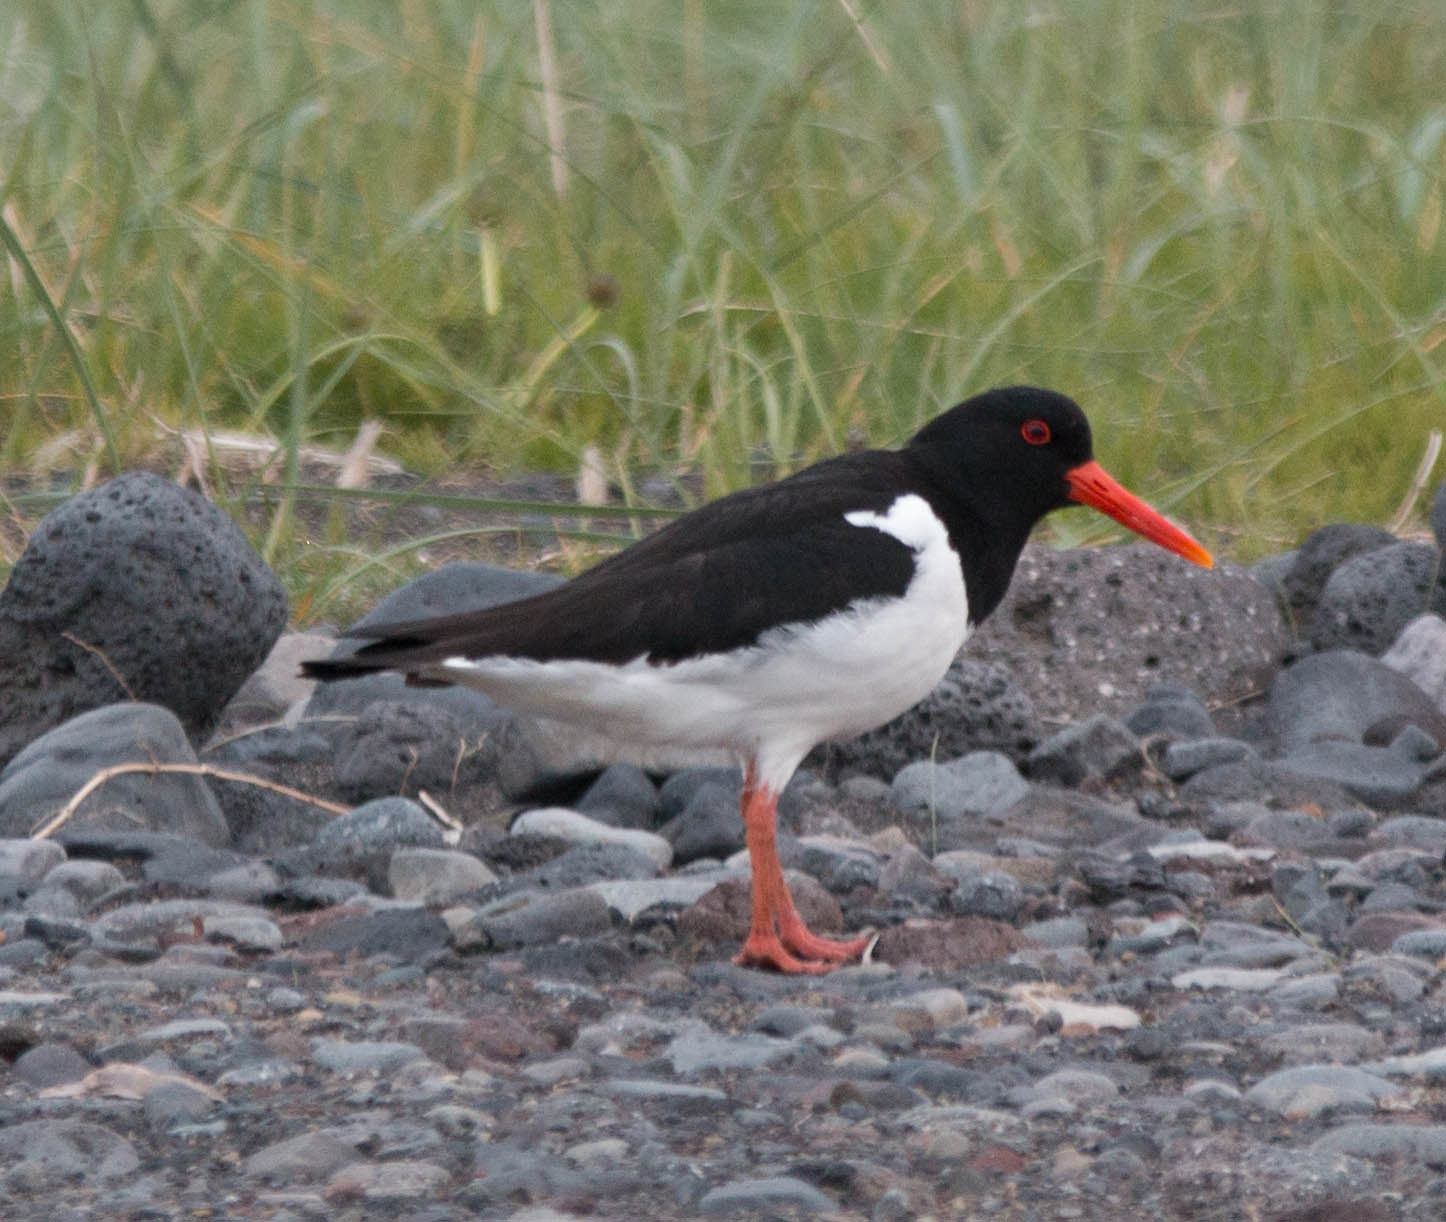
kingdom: Animalia
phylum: Chordata
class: Aves
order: Charadriiformes
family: Haematopodidae
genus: Haematopus
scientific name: Haematopus ostralegus
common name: Eurasian oystercatcher
